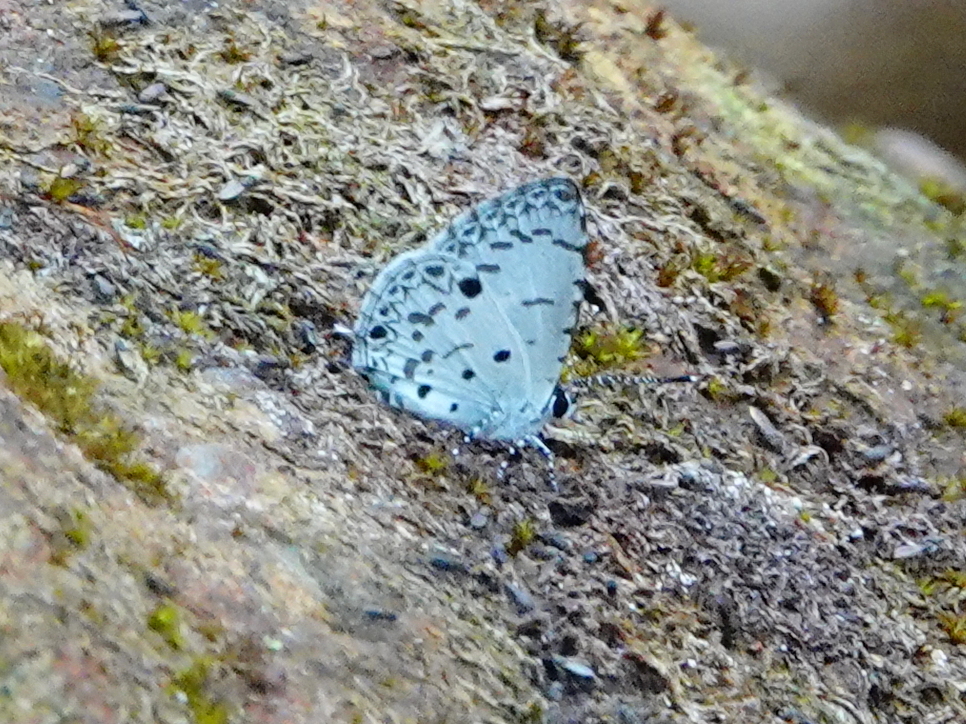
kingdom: Animalia
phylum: Arthropoda
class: Insecta
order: Lepidoptera
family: Lycaenidae
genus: Megisba
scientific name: Megisba malaya
